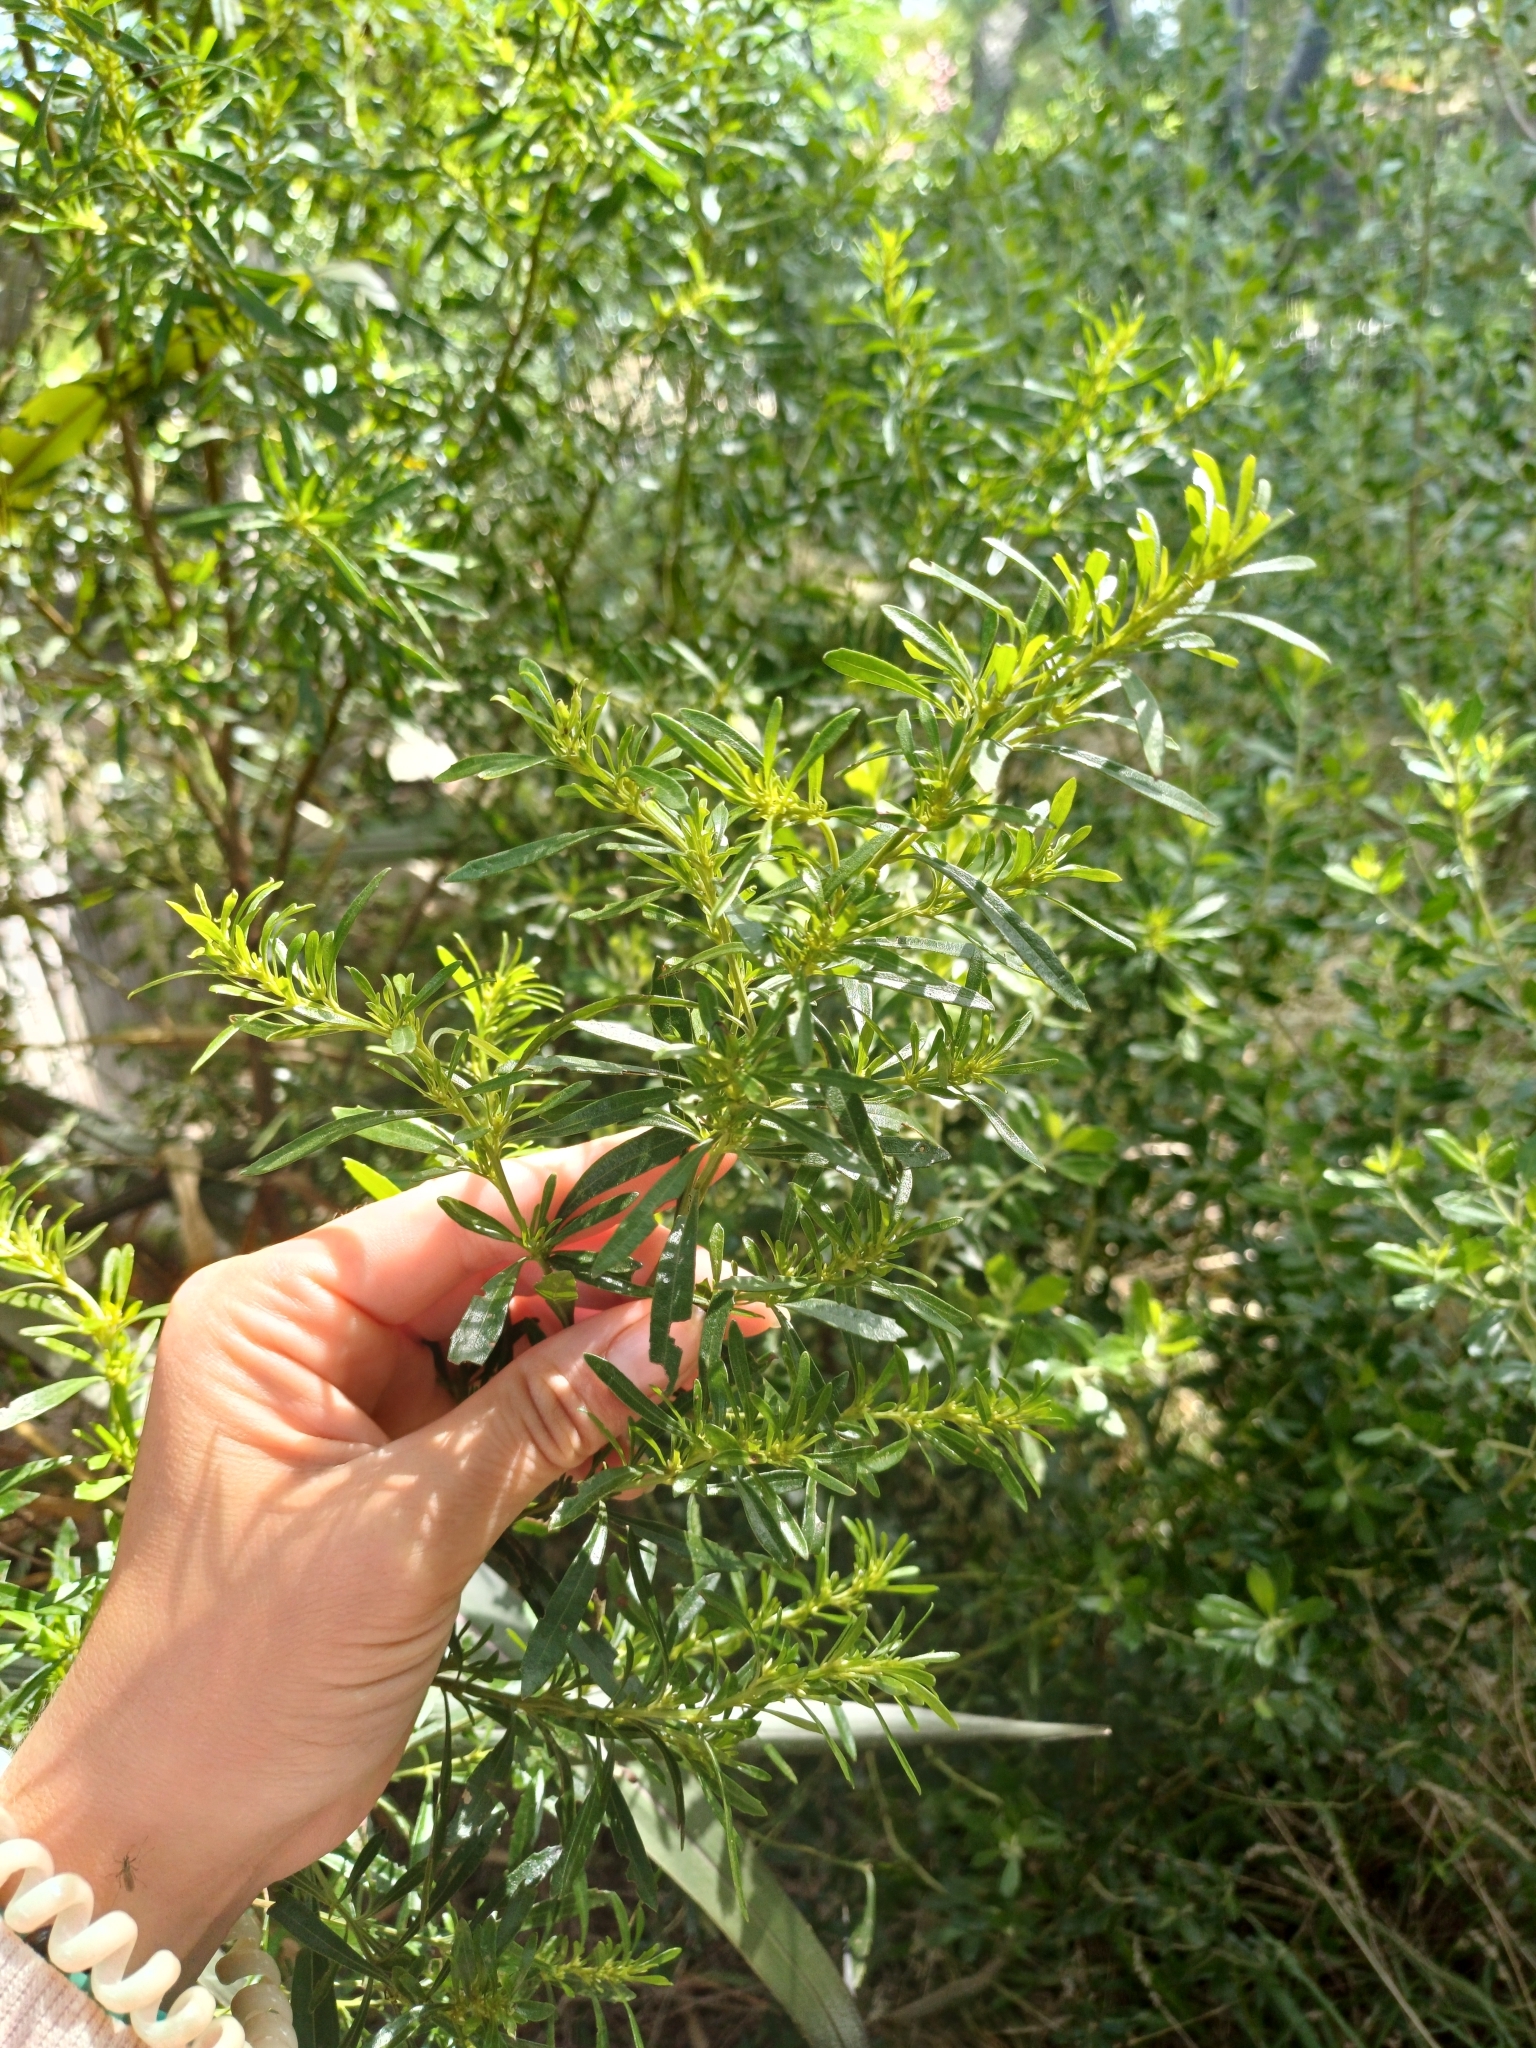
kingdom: Plantae
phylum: Tracheophyta
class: Magnoliopsida
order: Asterales
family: Asteraceae
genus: Baccharis
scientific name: Baccharis microdonta
